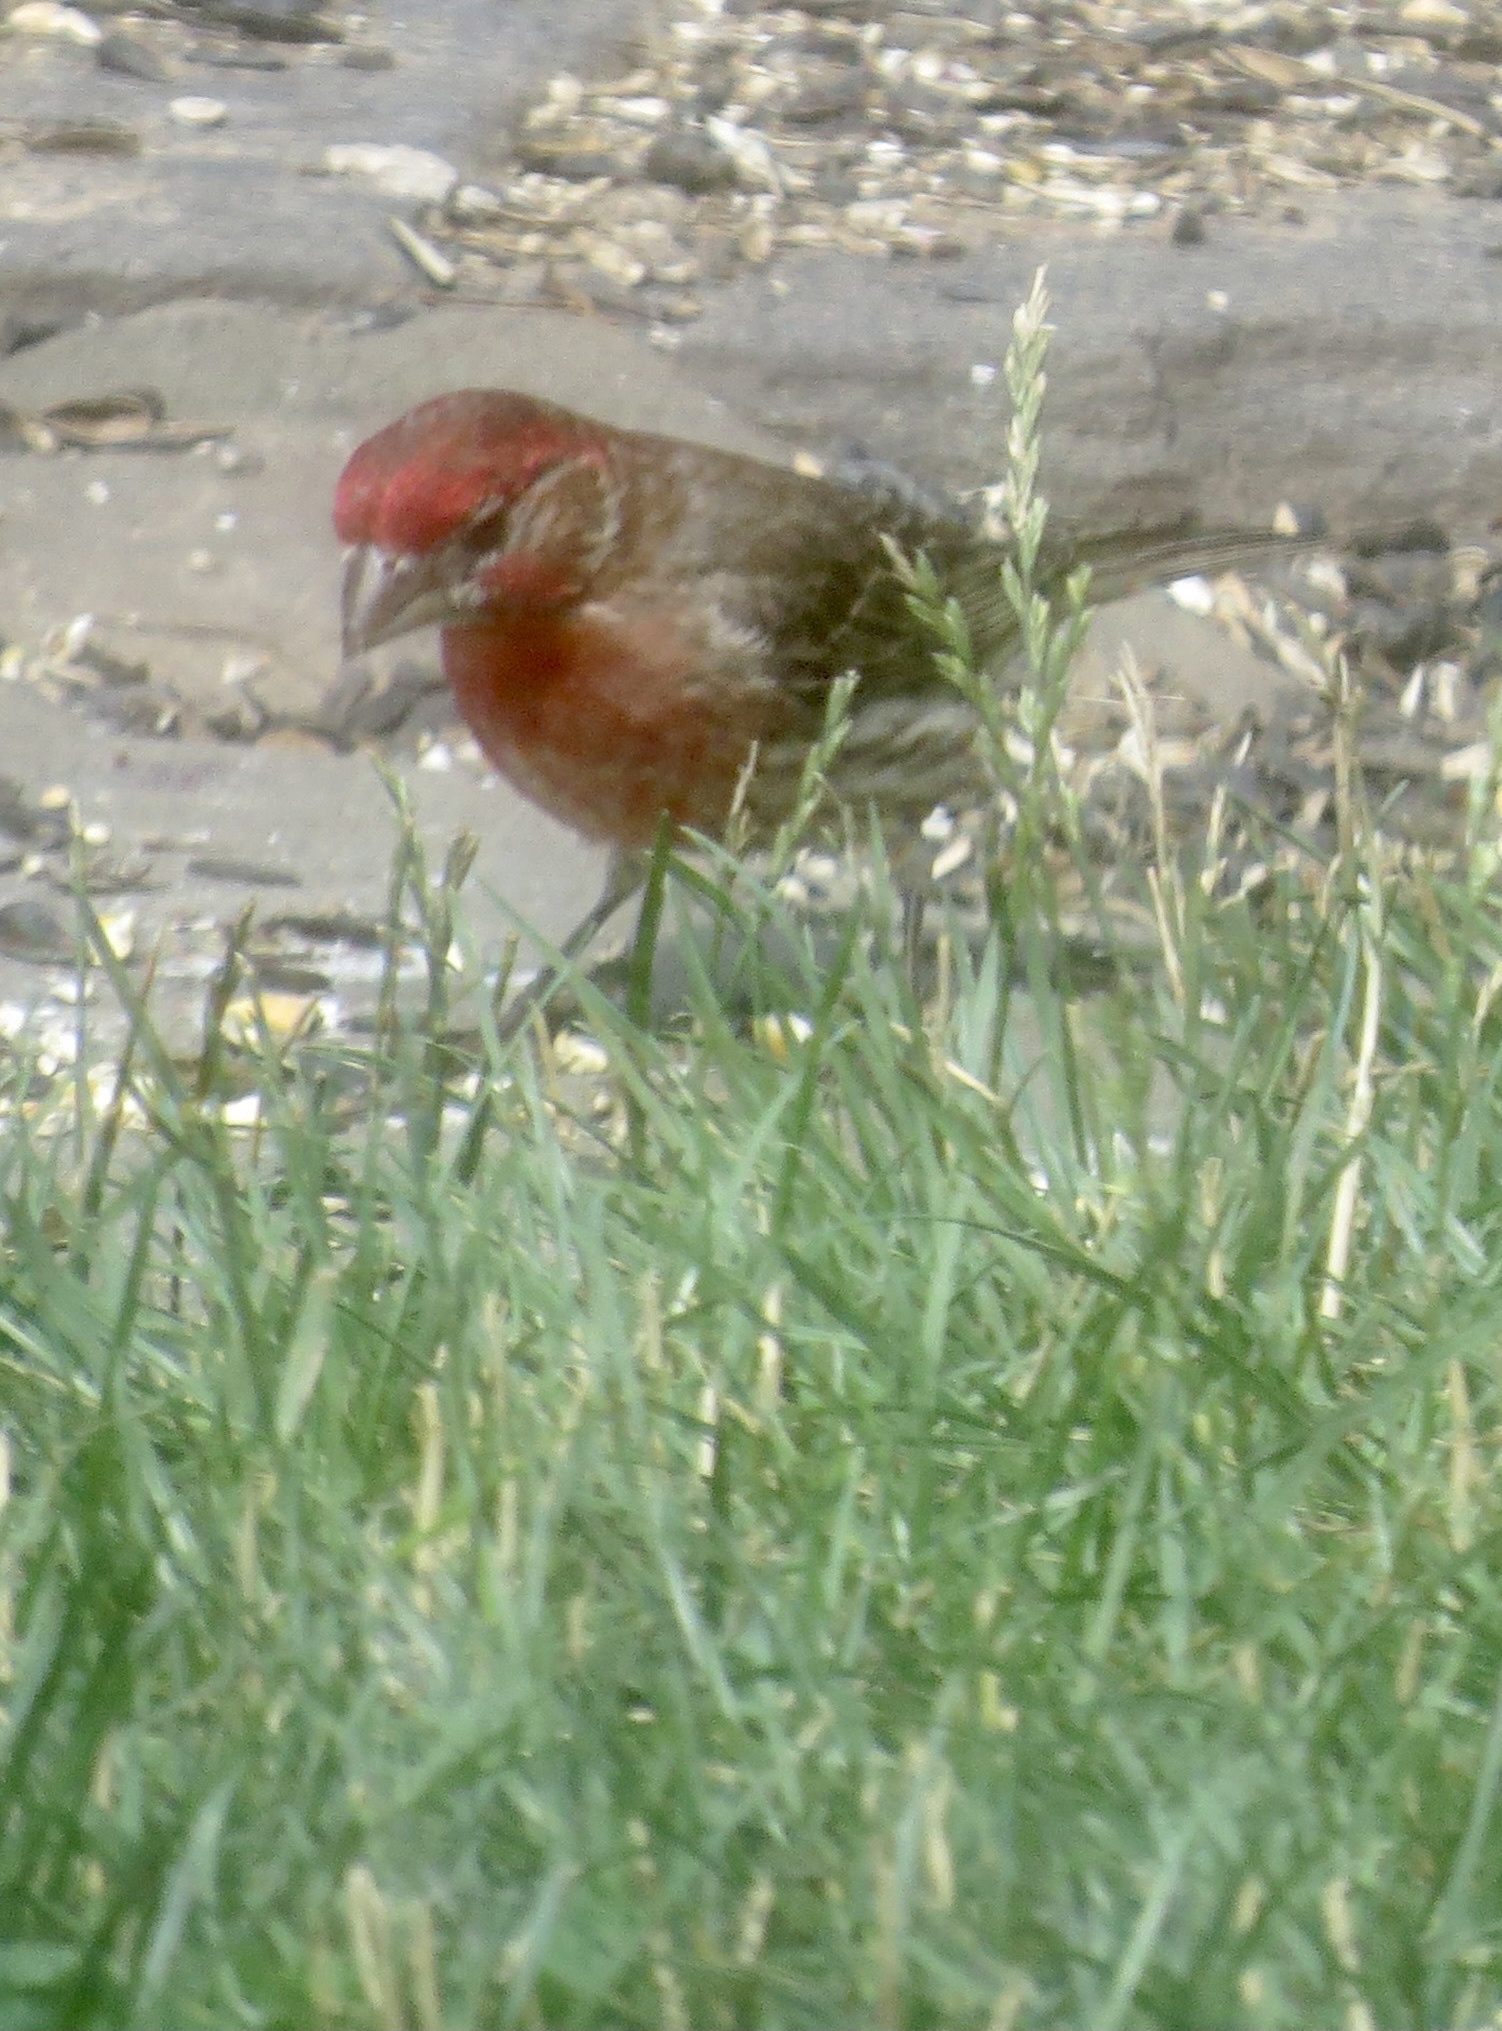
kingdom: Animalia
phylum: Chordata
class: Aves
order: Passeriformes
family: Fringillidae
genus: Haemorhous
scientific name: Haemorhous mexicanus
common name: House finch
